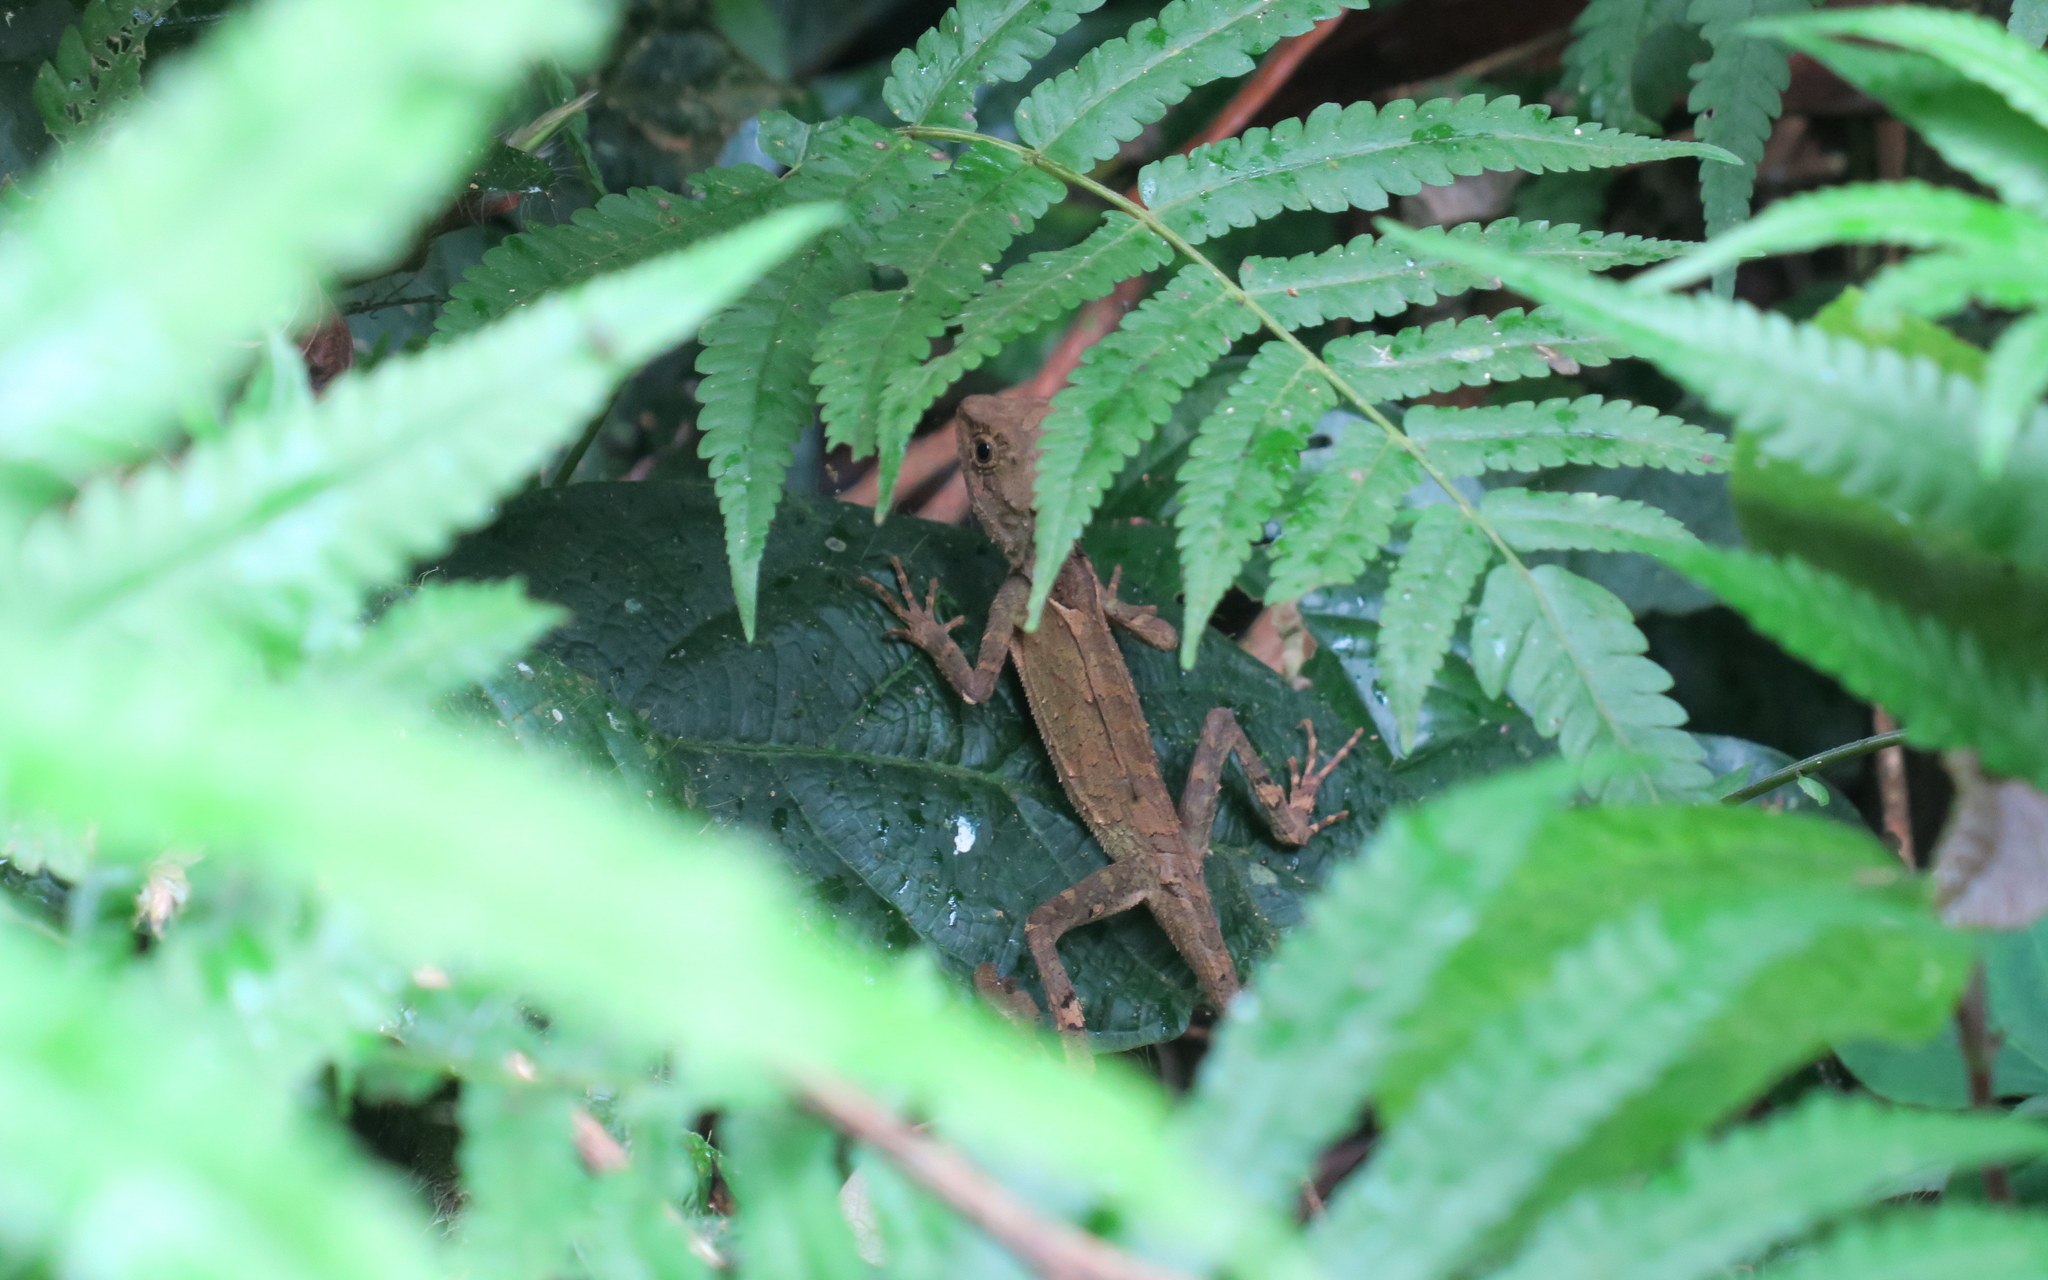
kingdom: Animalia
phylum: Chordata
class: Squamata
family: Agamidae
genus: Acanthosaura
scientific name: Acanthosaura lepidogaster
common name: Brown pricklenape
